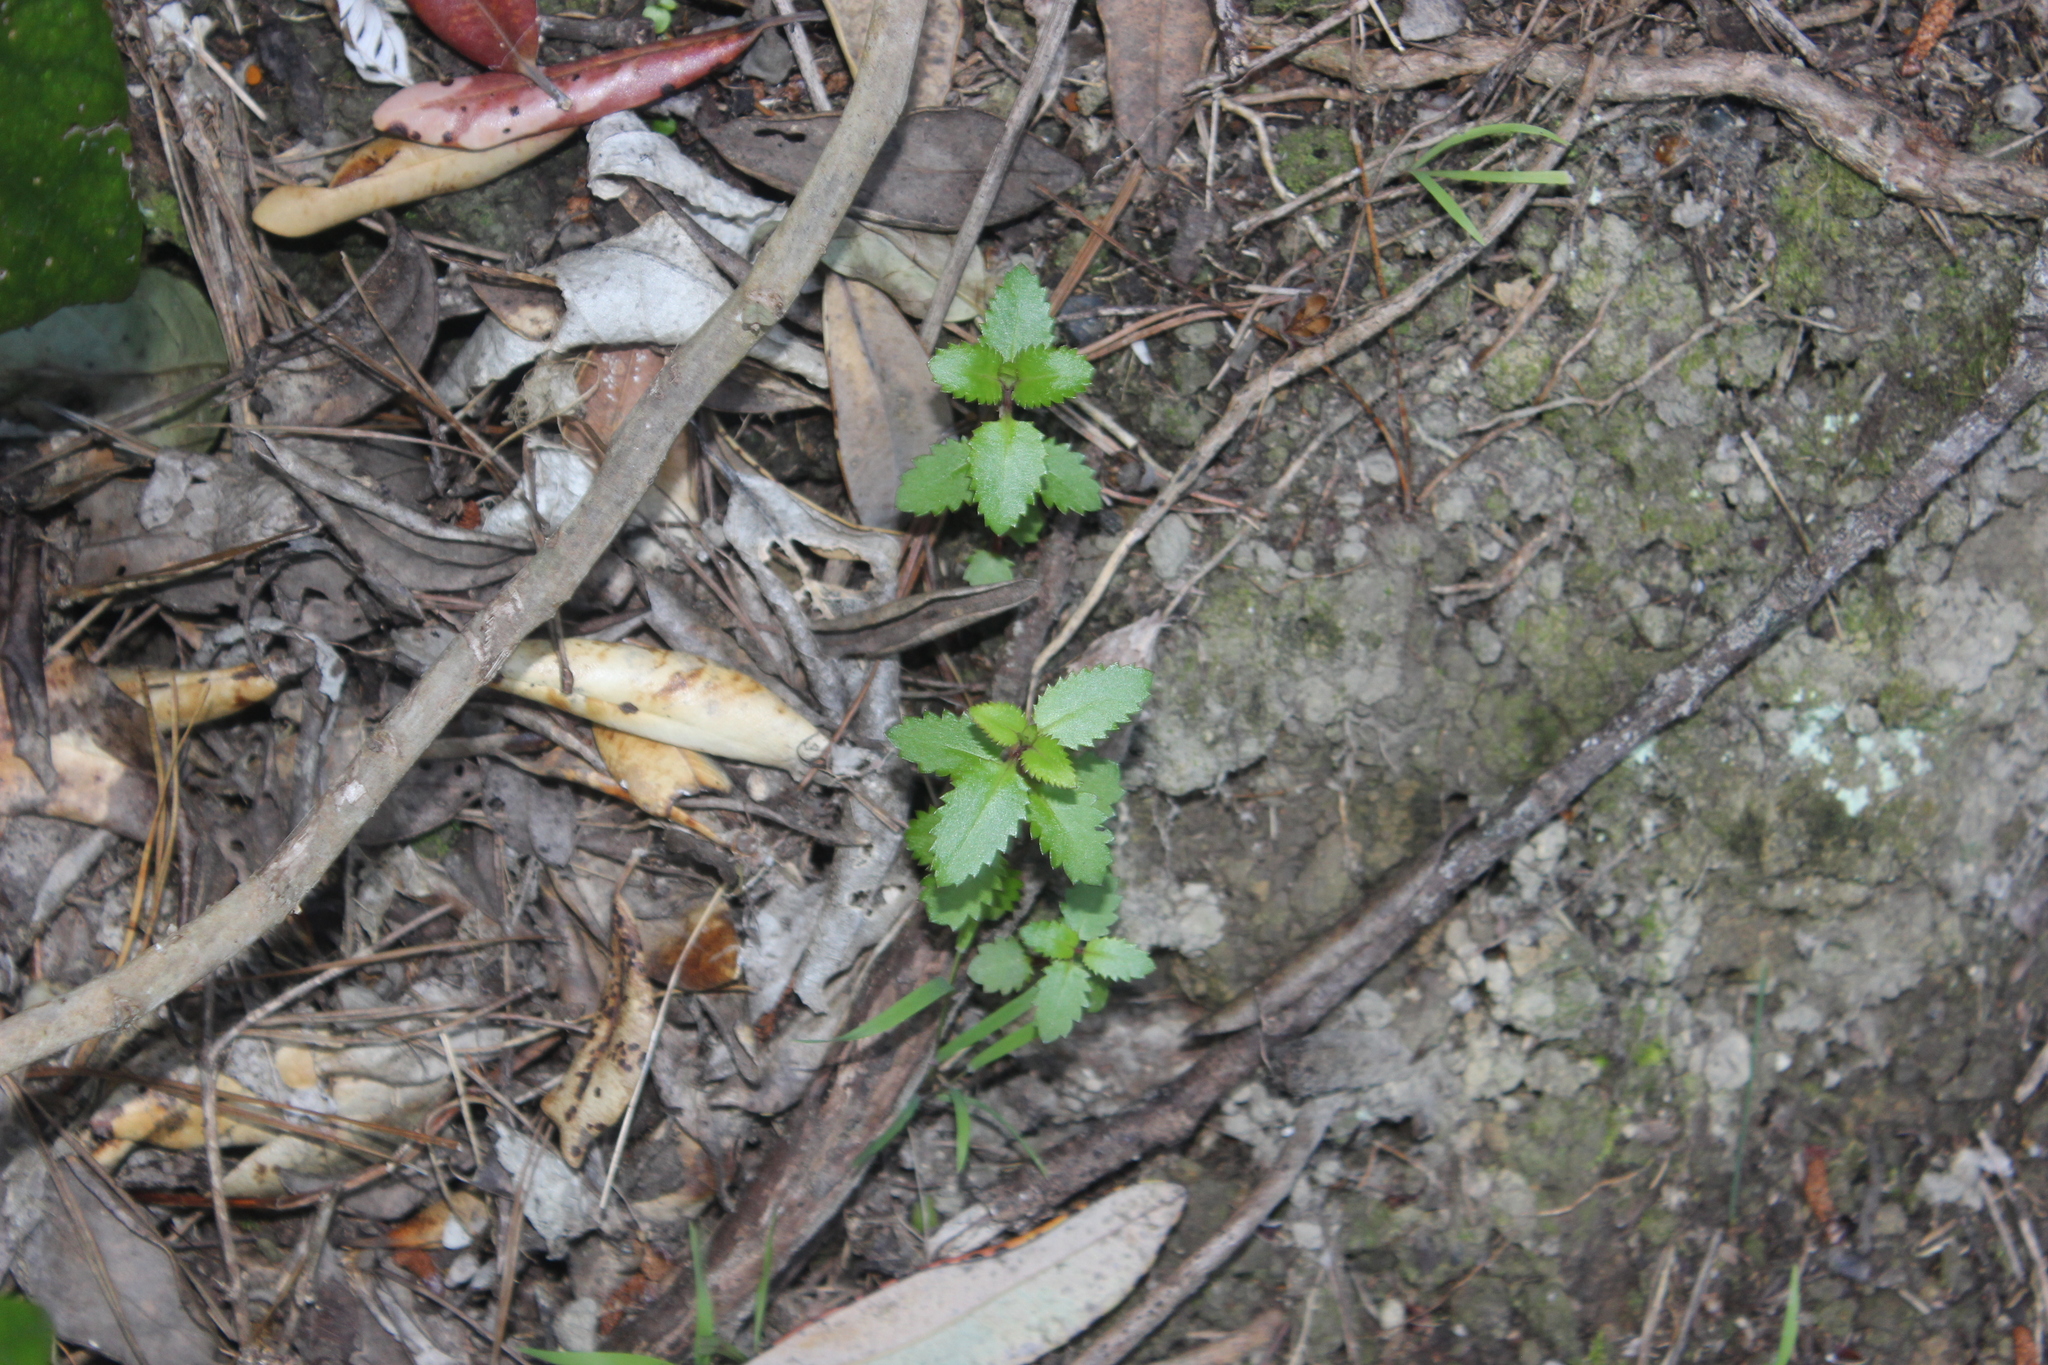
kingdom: Plantae
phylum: Tracheophyta
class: Magnoliopsida
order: Saxifragales
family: Haloragaceae
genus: Haloragis
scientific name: Haloragis erecta
